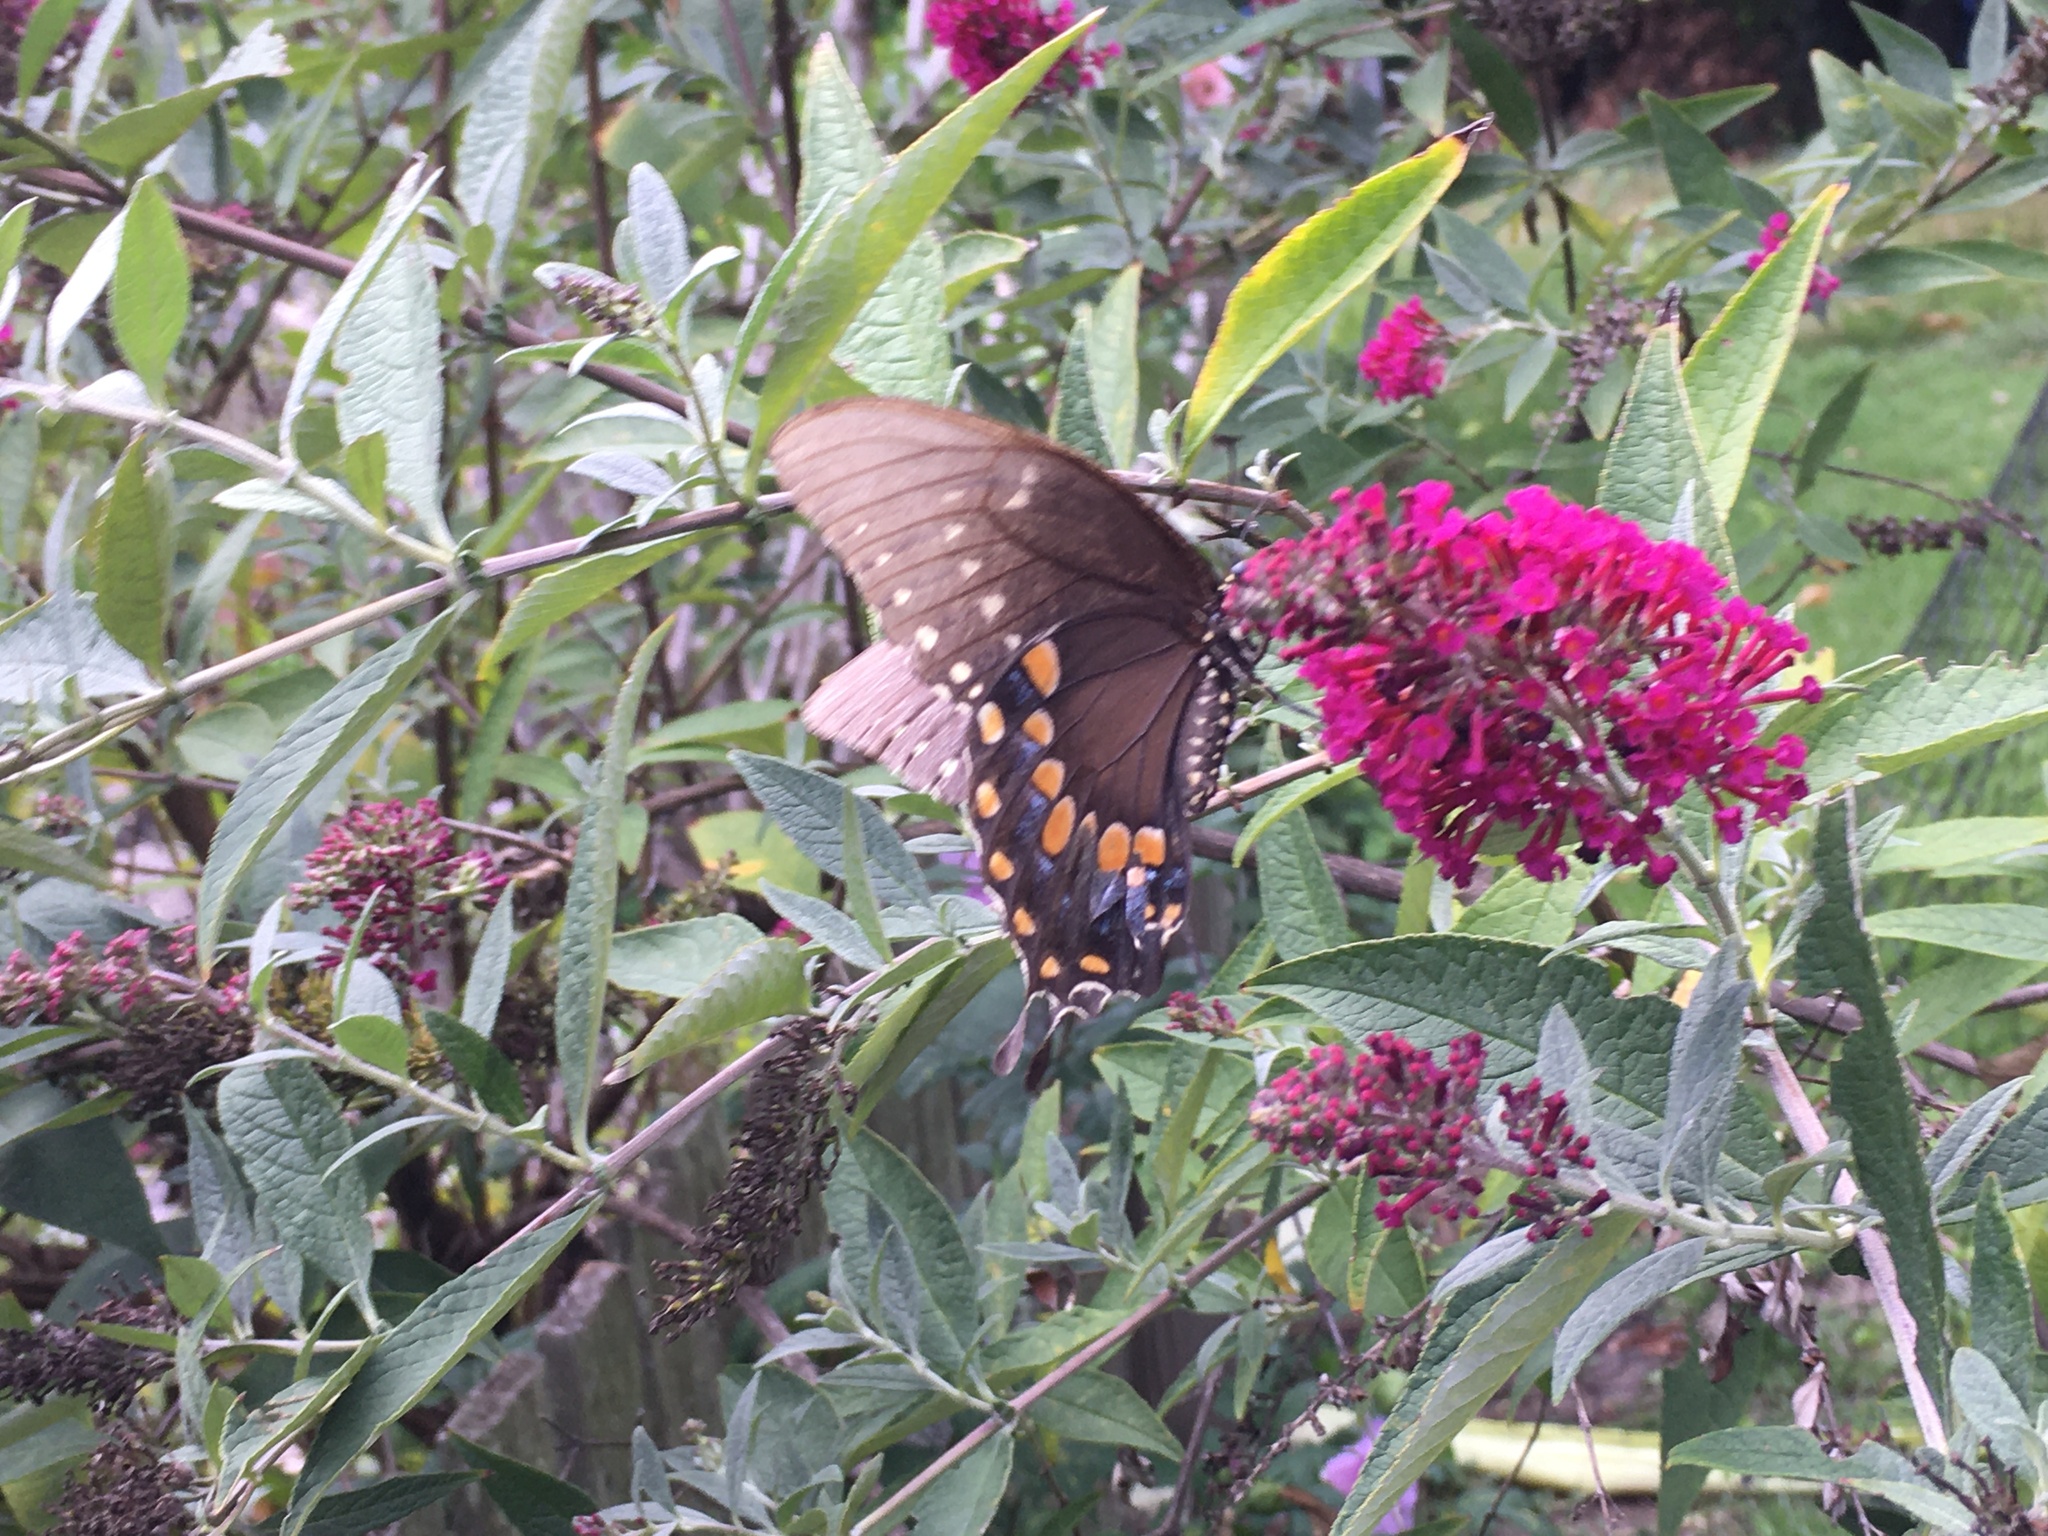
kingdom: Animalia
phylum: Arthropoda
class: Insecta
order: Lepidoptera
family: Papilionidae
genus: Papilio
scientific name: Papilio troilus
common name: Spicebush swallowtail
